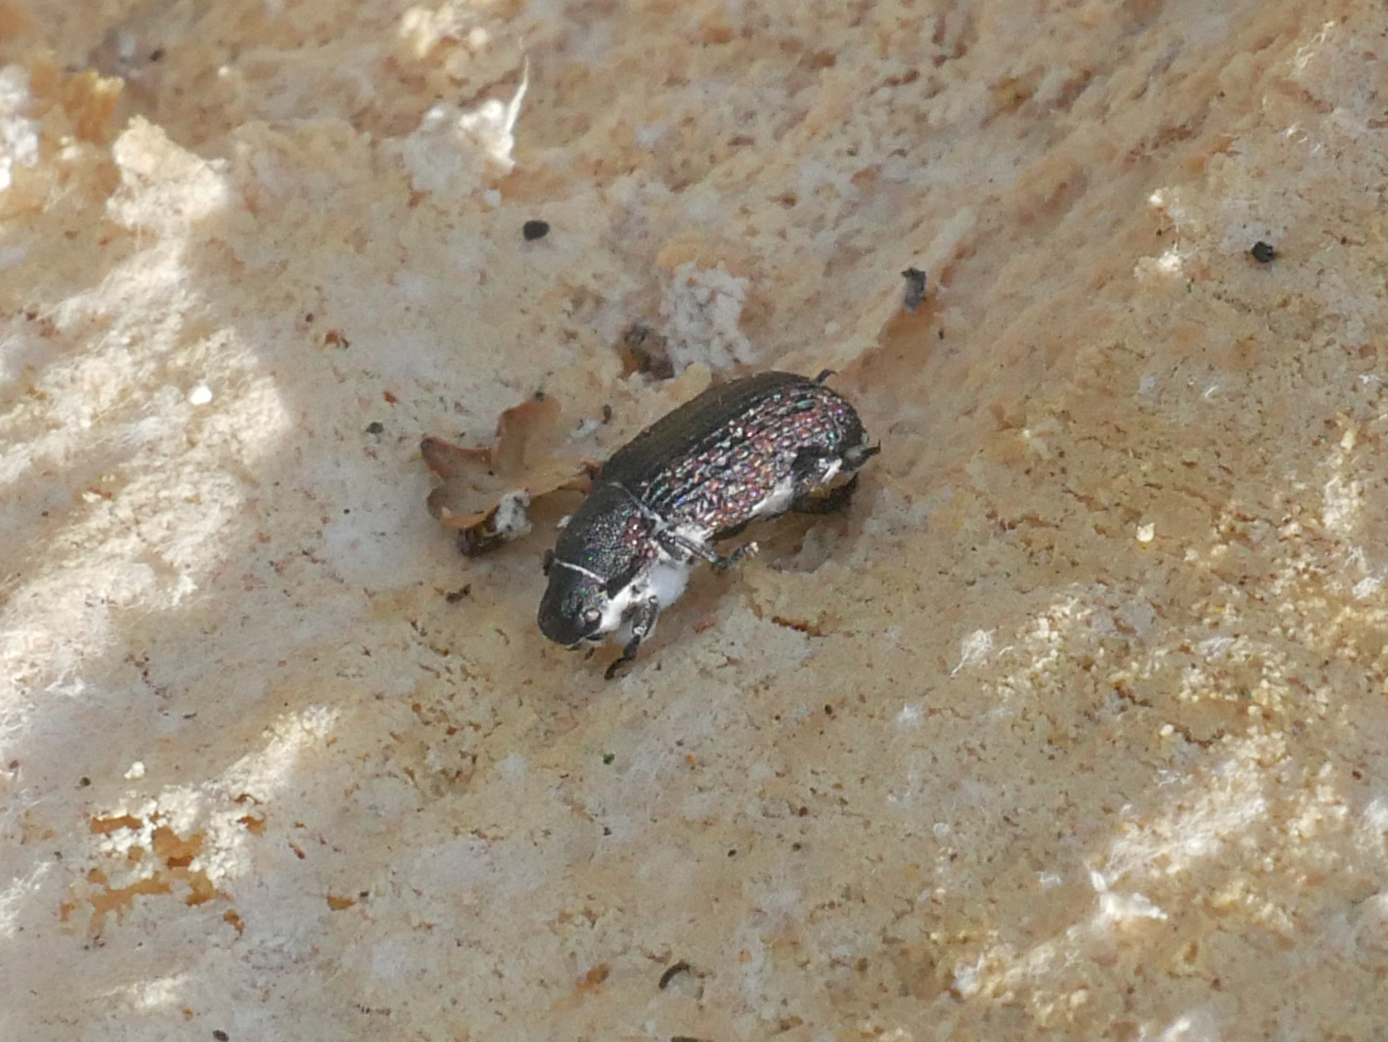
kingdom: Animalia
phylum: Arthropoda
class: Insecta
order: Coleoptera
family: Tenebrionidae
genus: Bolitophagus
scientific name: Bolitophagus reticulatus
